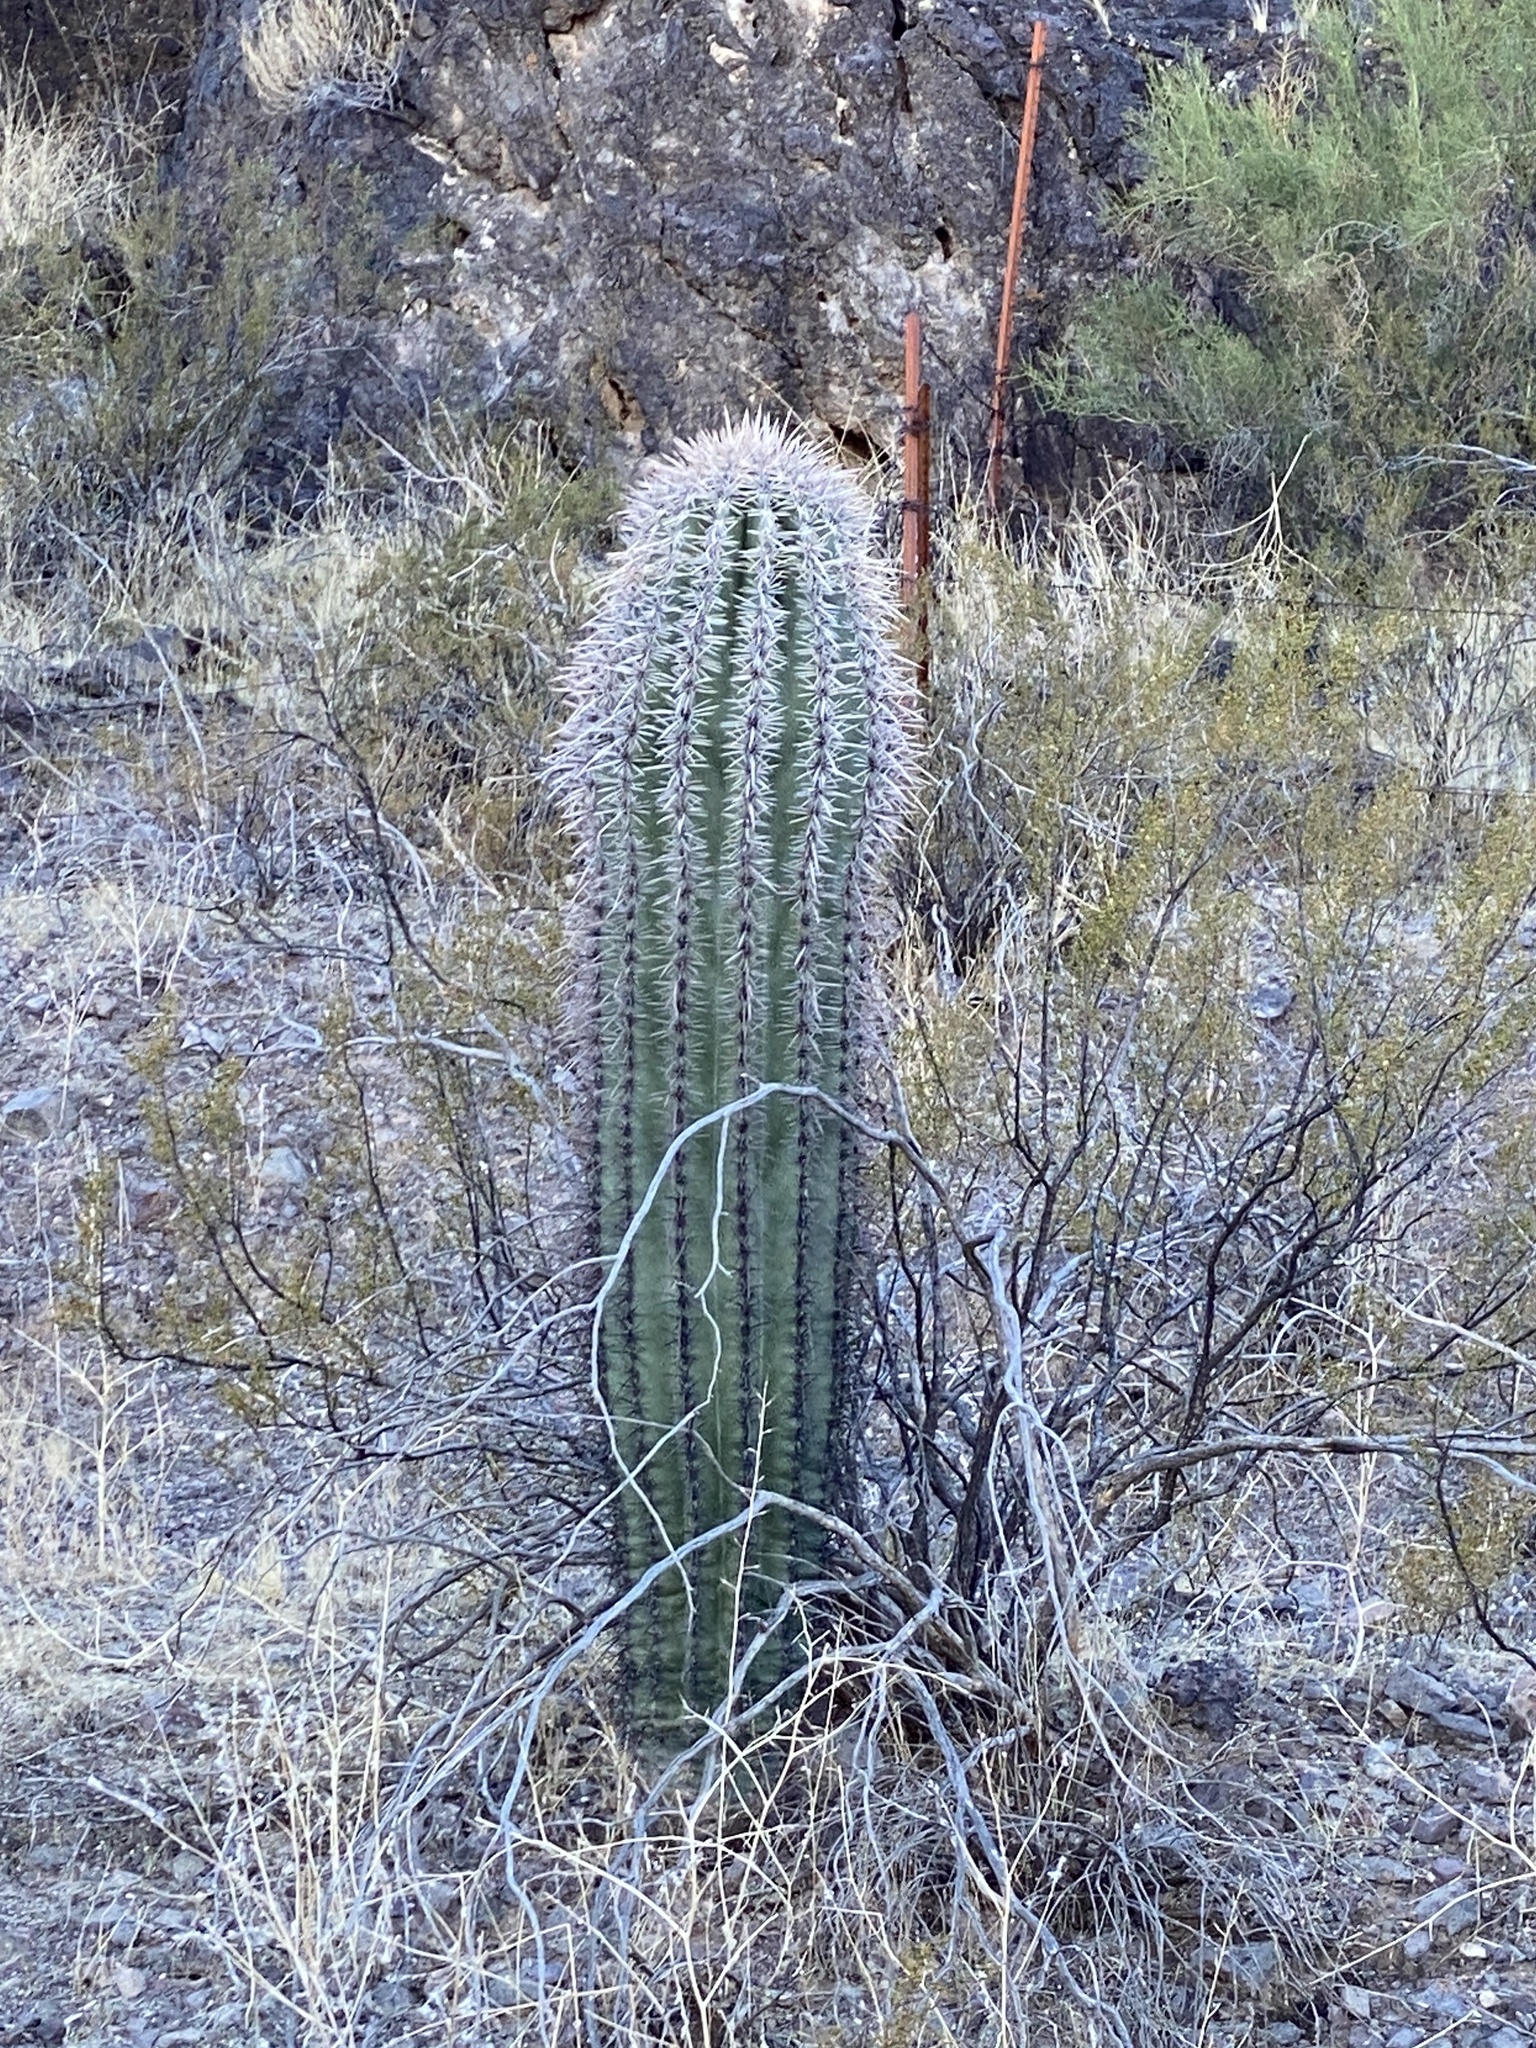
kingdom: Plantae
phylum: Tracheophyta
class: Magnoliopsida
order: Caryophyllales
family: Cactaceae
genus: Carnegiea
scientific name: Carnegiea gigantea
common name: Saguaro
